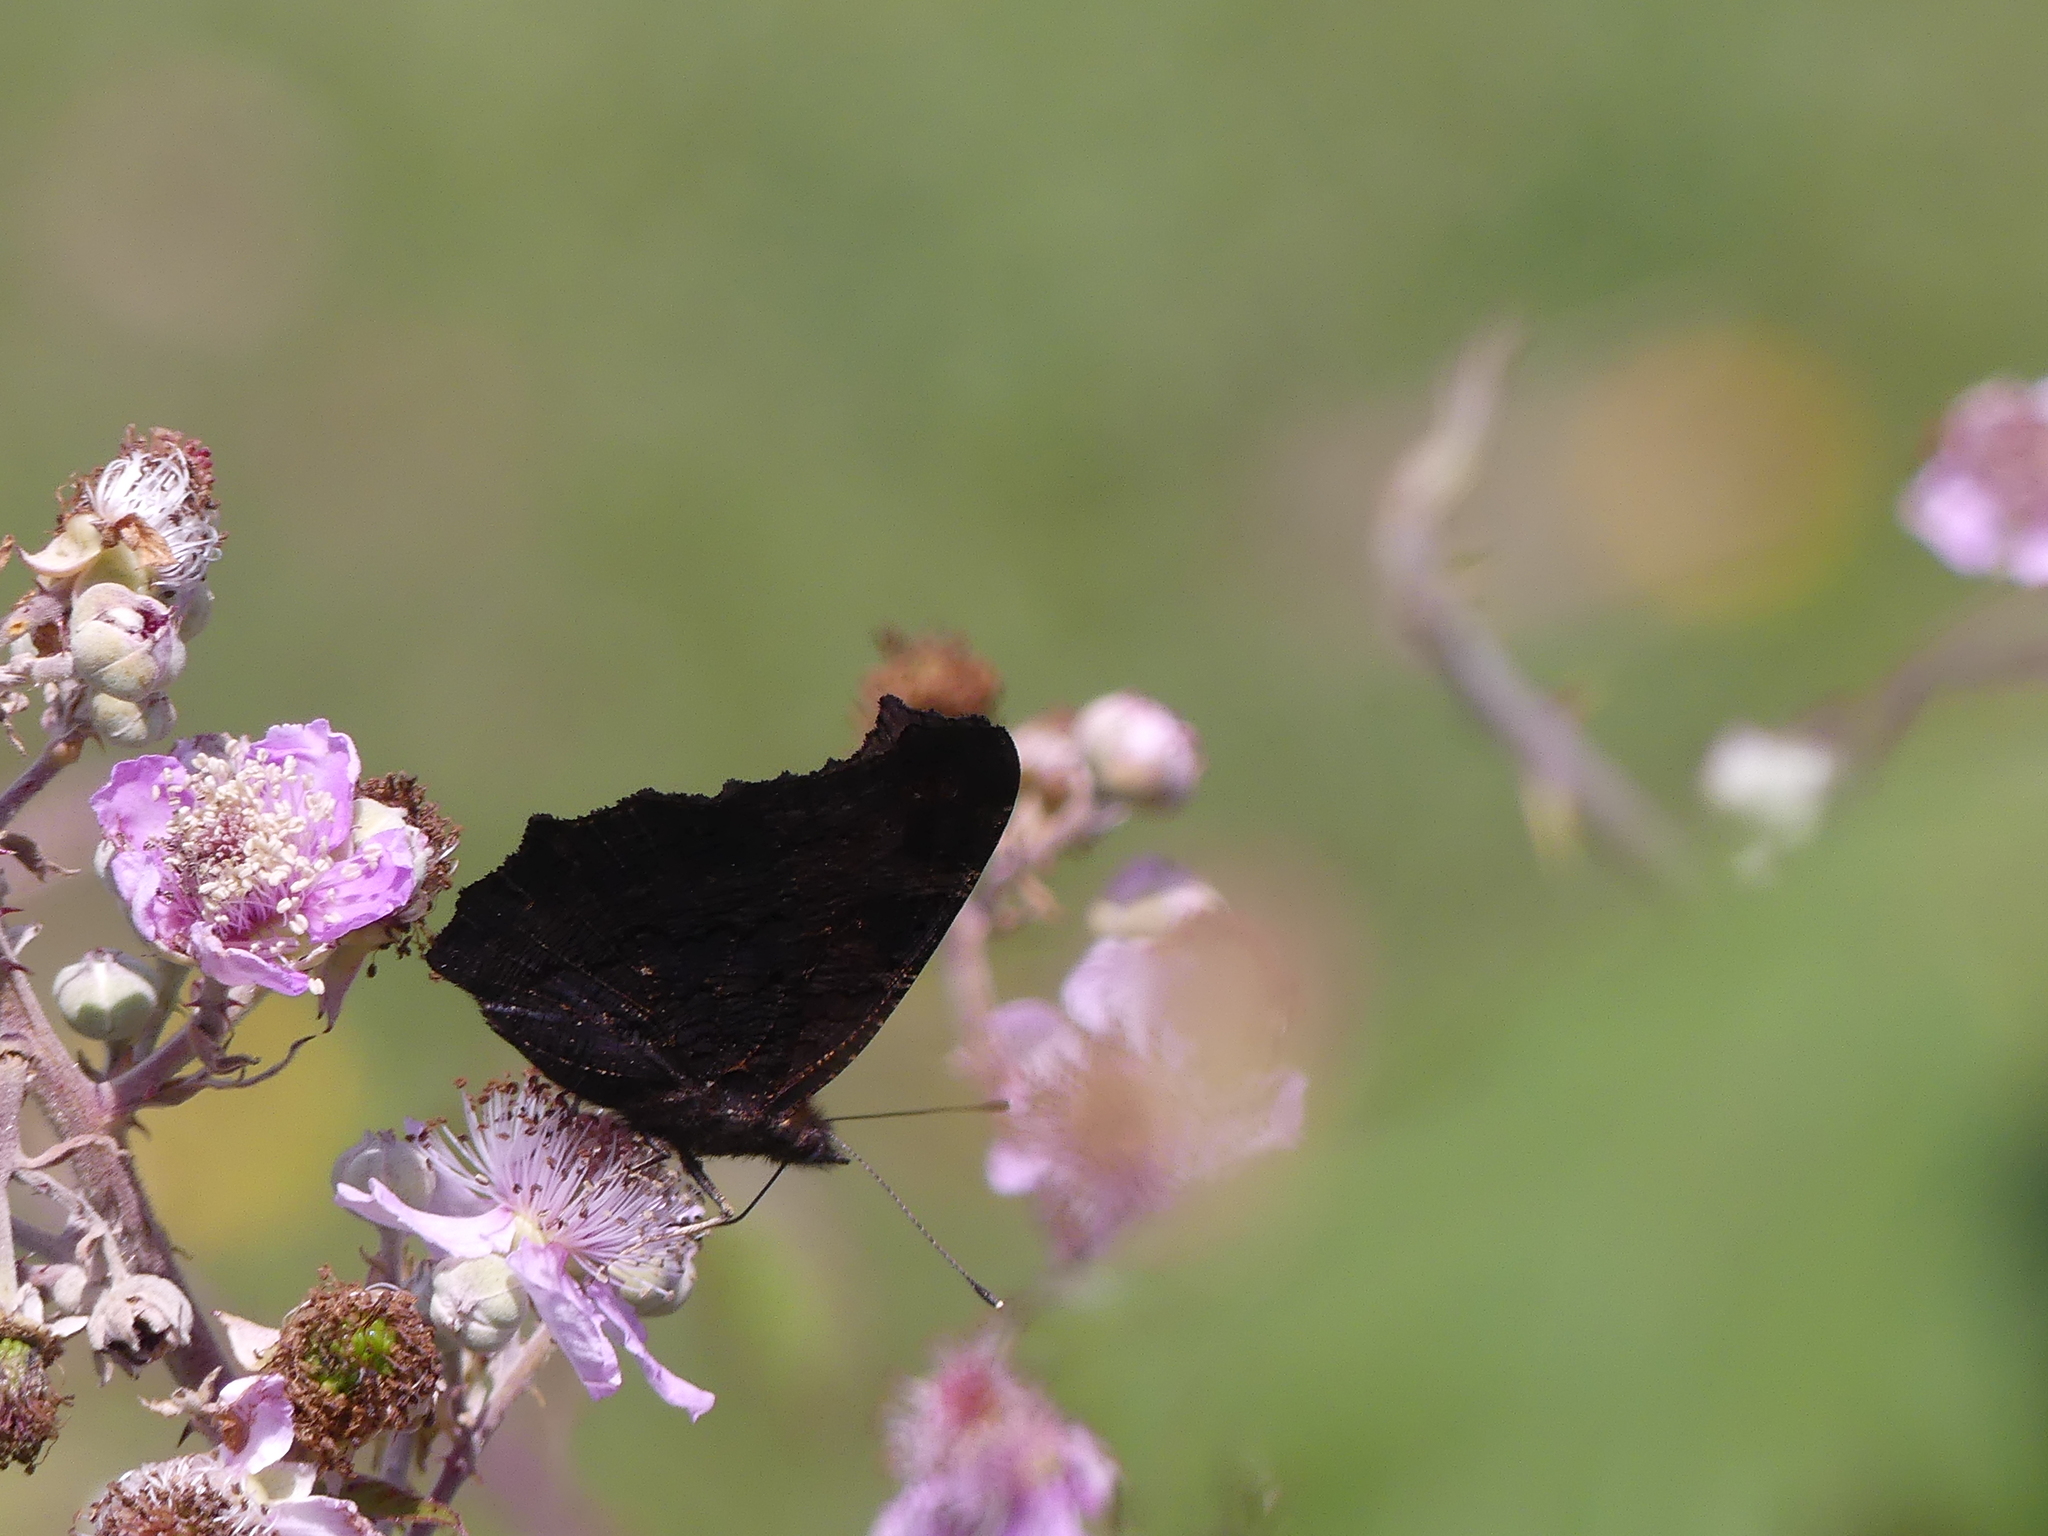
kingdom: Animalia
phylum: Arthropoda
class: Insecta
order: Lepidoptera
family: Nymphalidae
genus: Aglais
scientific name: Aglais io
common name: Peacock
